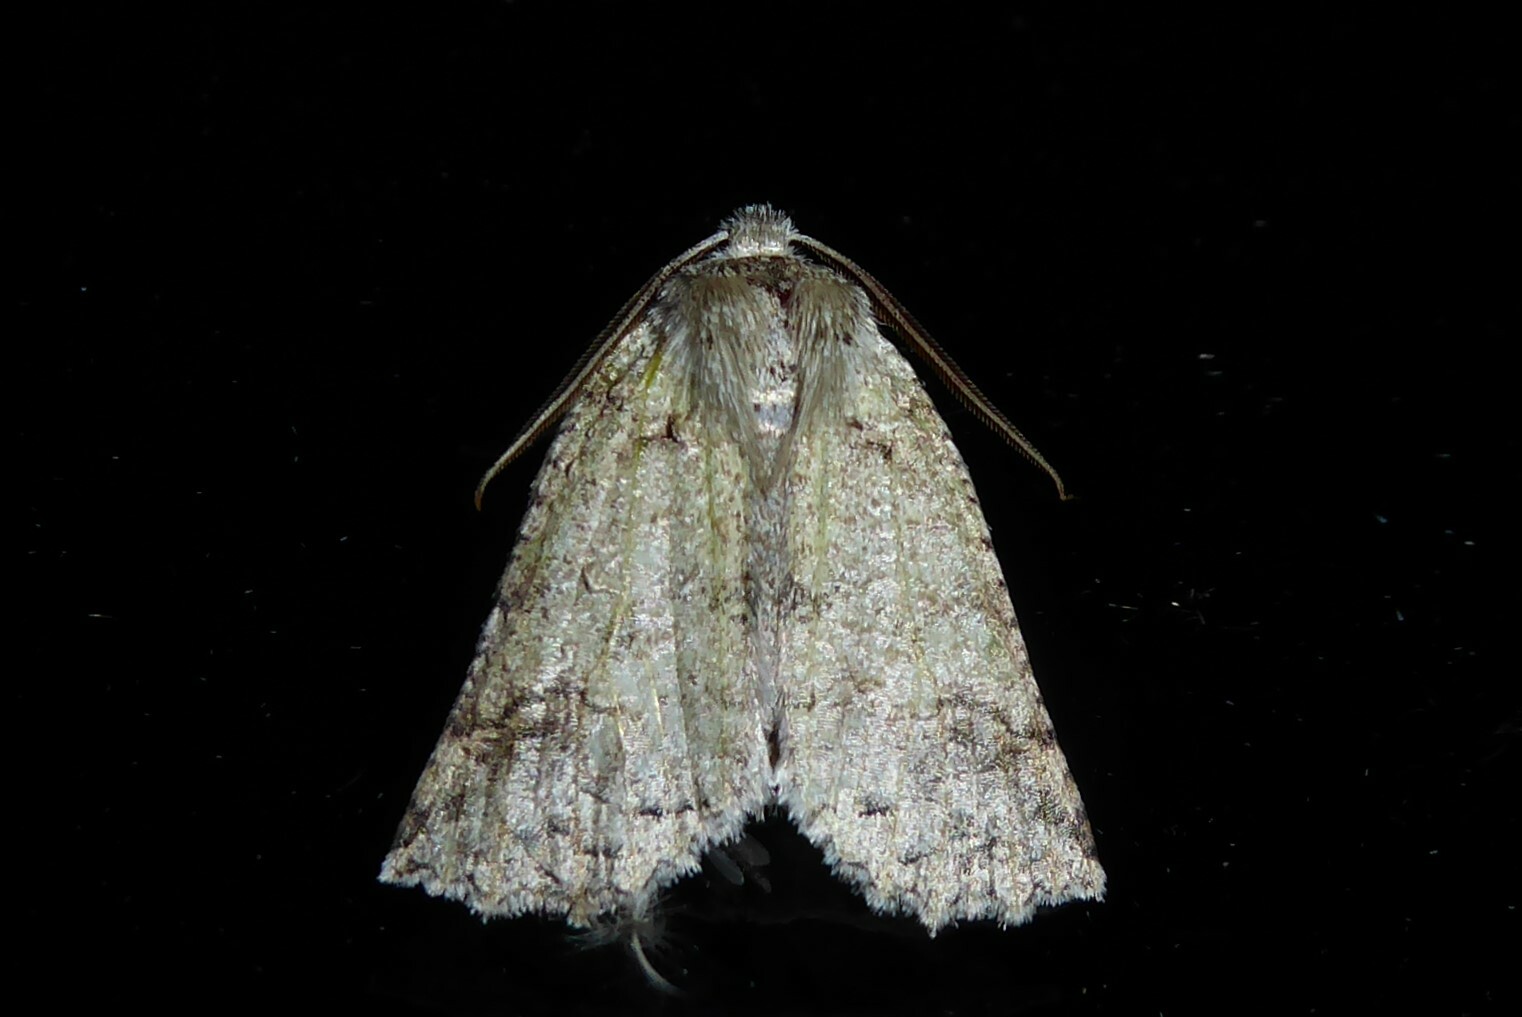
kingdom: Animalia
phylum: Arthropoda
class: Insecta
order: Lepidoptera
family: Geometridae
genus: Declana
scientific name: Declana floccosa
